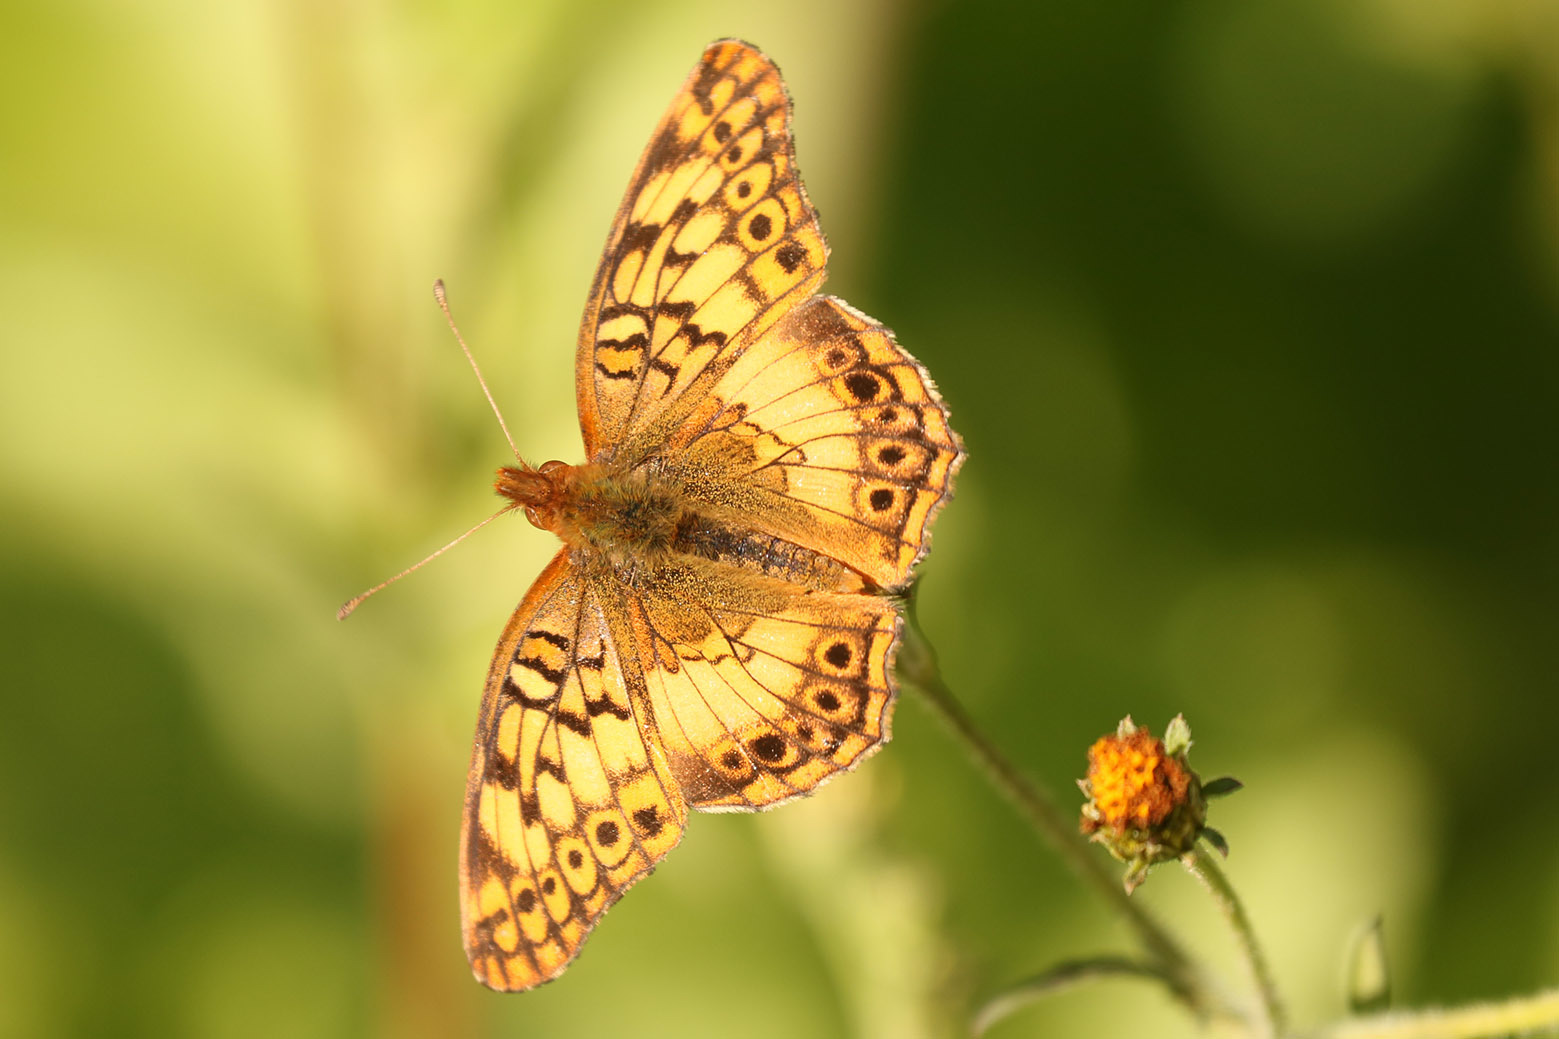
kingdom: Animalia
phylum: Arthropoda
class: Insecta
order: Lepidoptera
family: Nymphalidae
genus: Euptoieta
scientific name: Euptoieta hortensia
